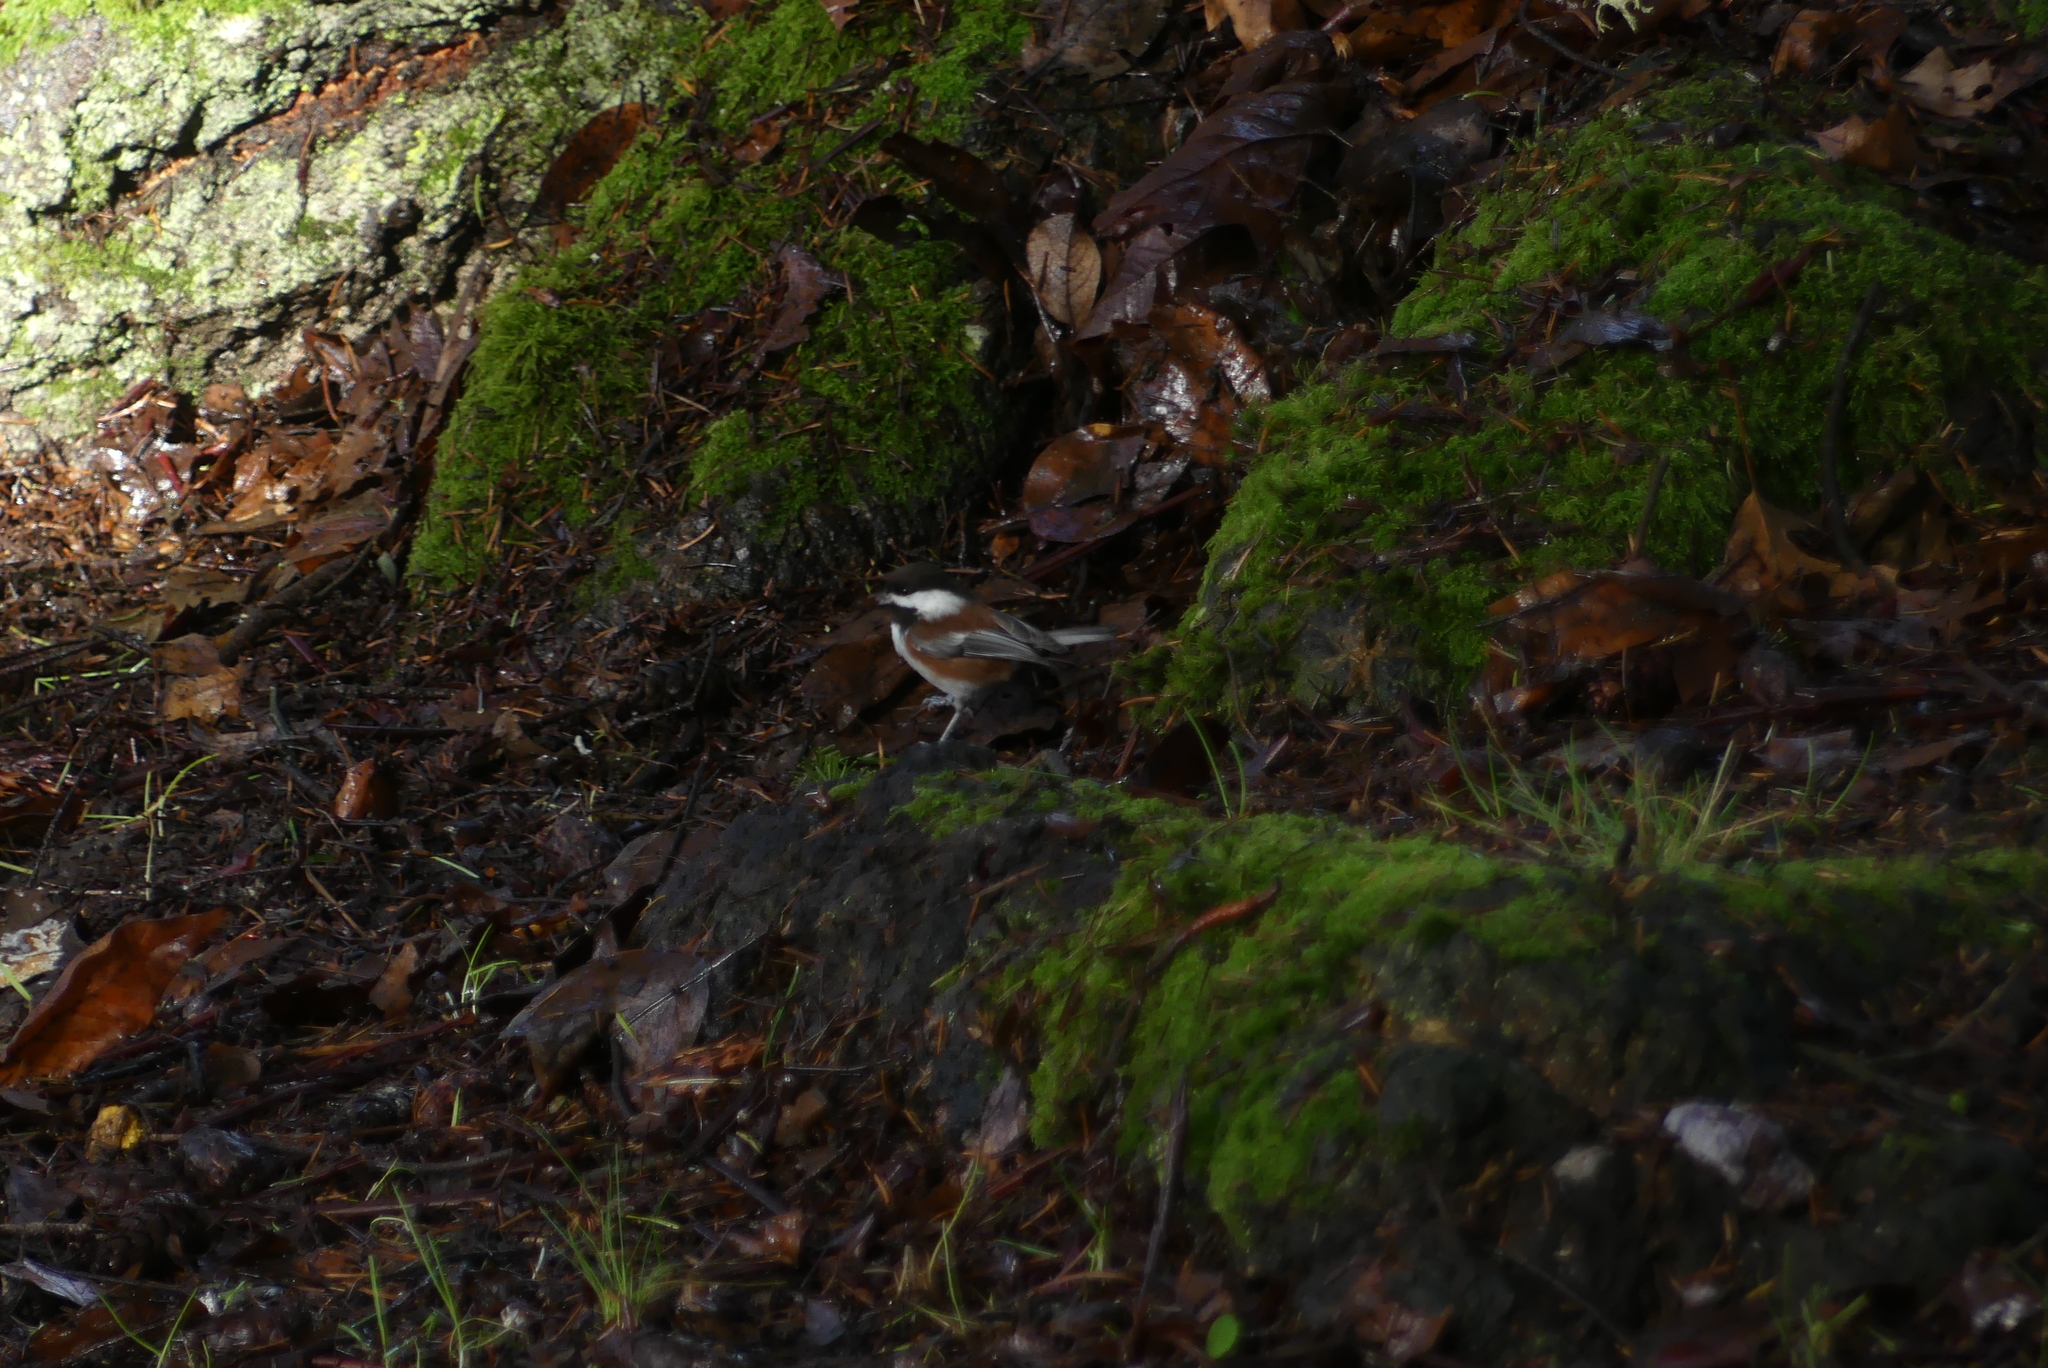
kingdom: Animalia
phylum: Chordata
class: Aves
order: Passeriformes
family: Paridae
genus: Poecile
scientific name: Poecile rufescens
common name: Chestnut-backed chickadee
